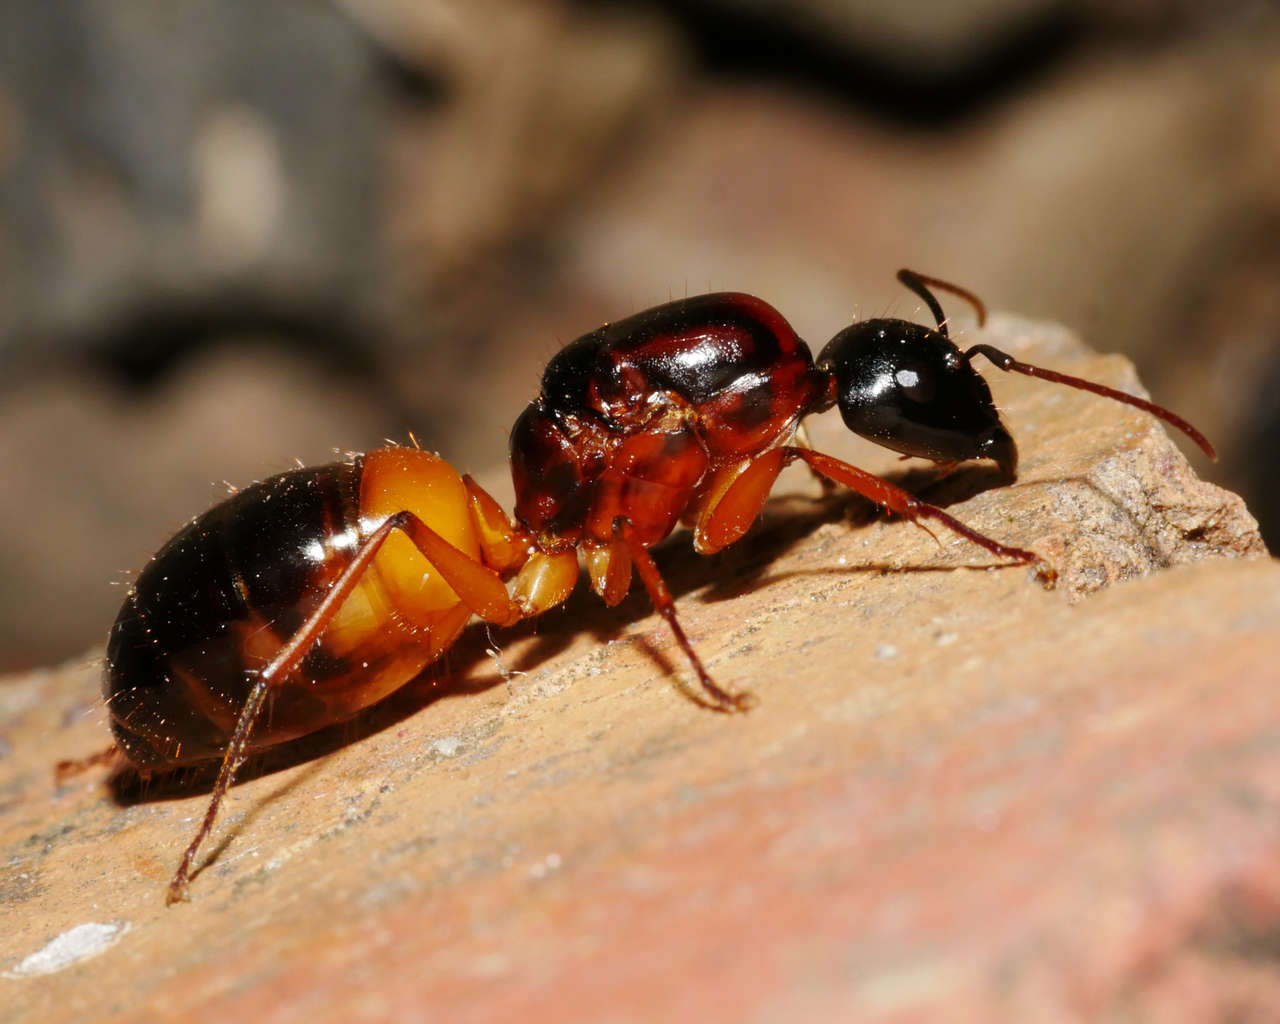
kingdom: Animalia
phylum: Arthropoda
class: Insecta
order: Hymenoptera
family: Formicidae
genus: Camponotus
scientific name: Camponotus consobrinus
